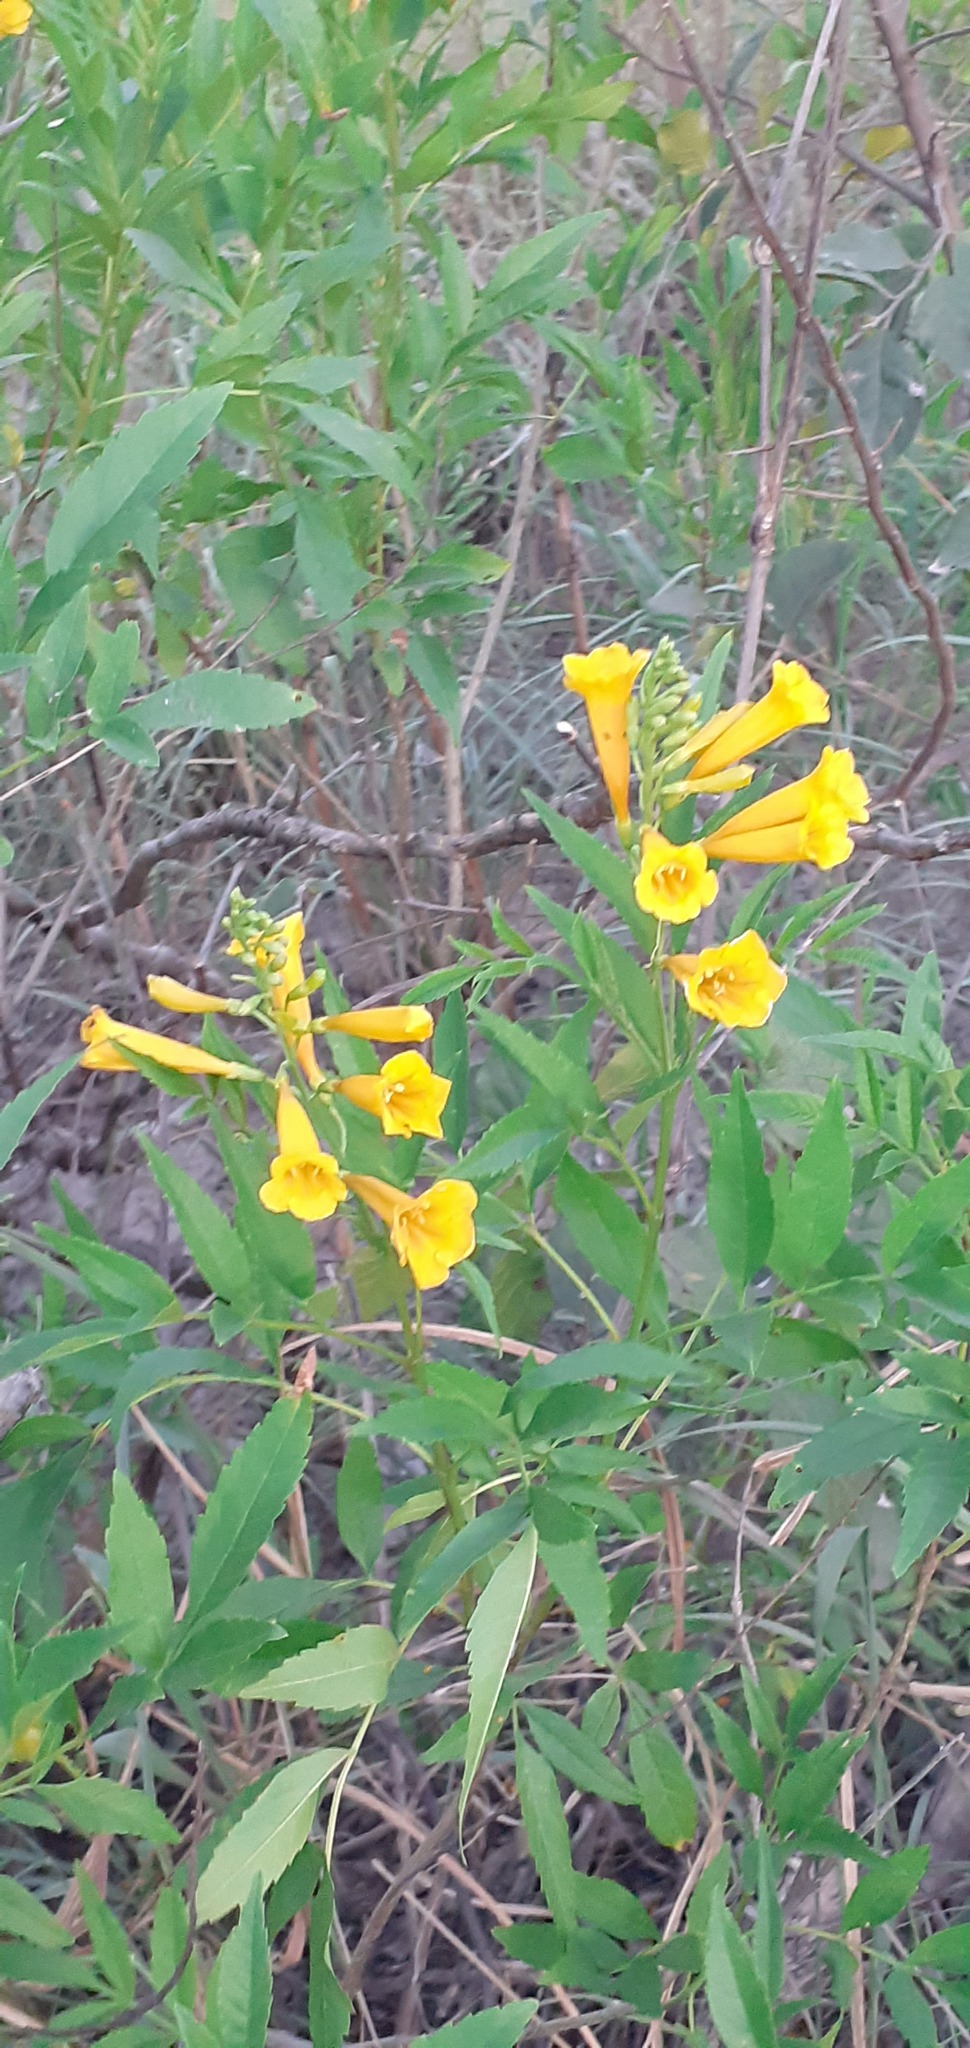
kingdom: Plantae
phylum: Tracheophyta
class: Magnoliopsida
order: Lamiales
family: Bignoniaceae
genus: Tecoma
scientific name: Tecoma stans
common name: Yellow trumpetbush
